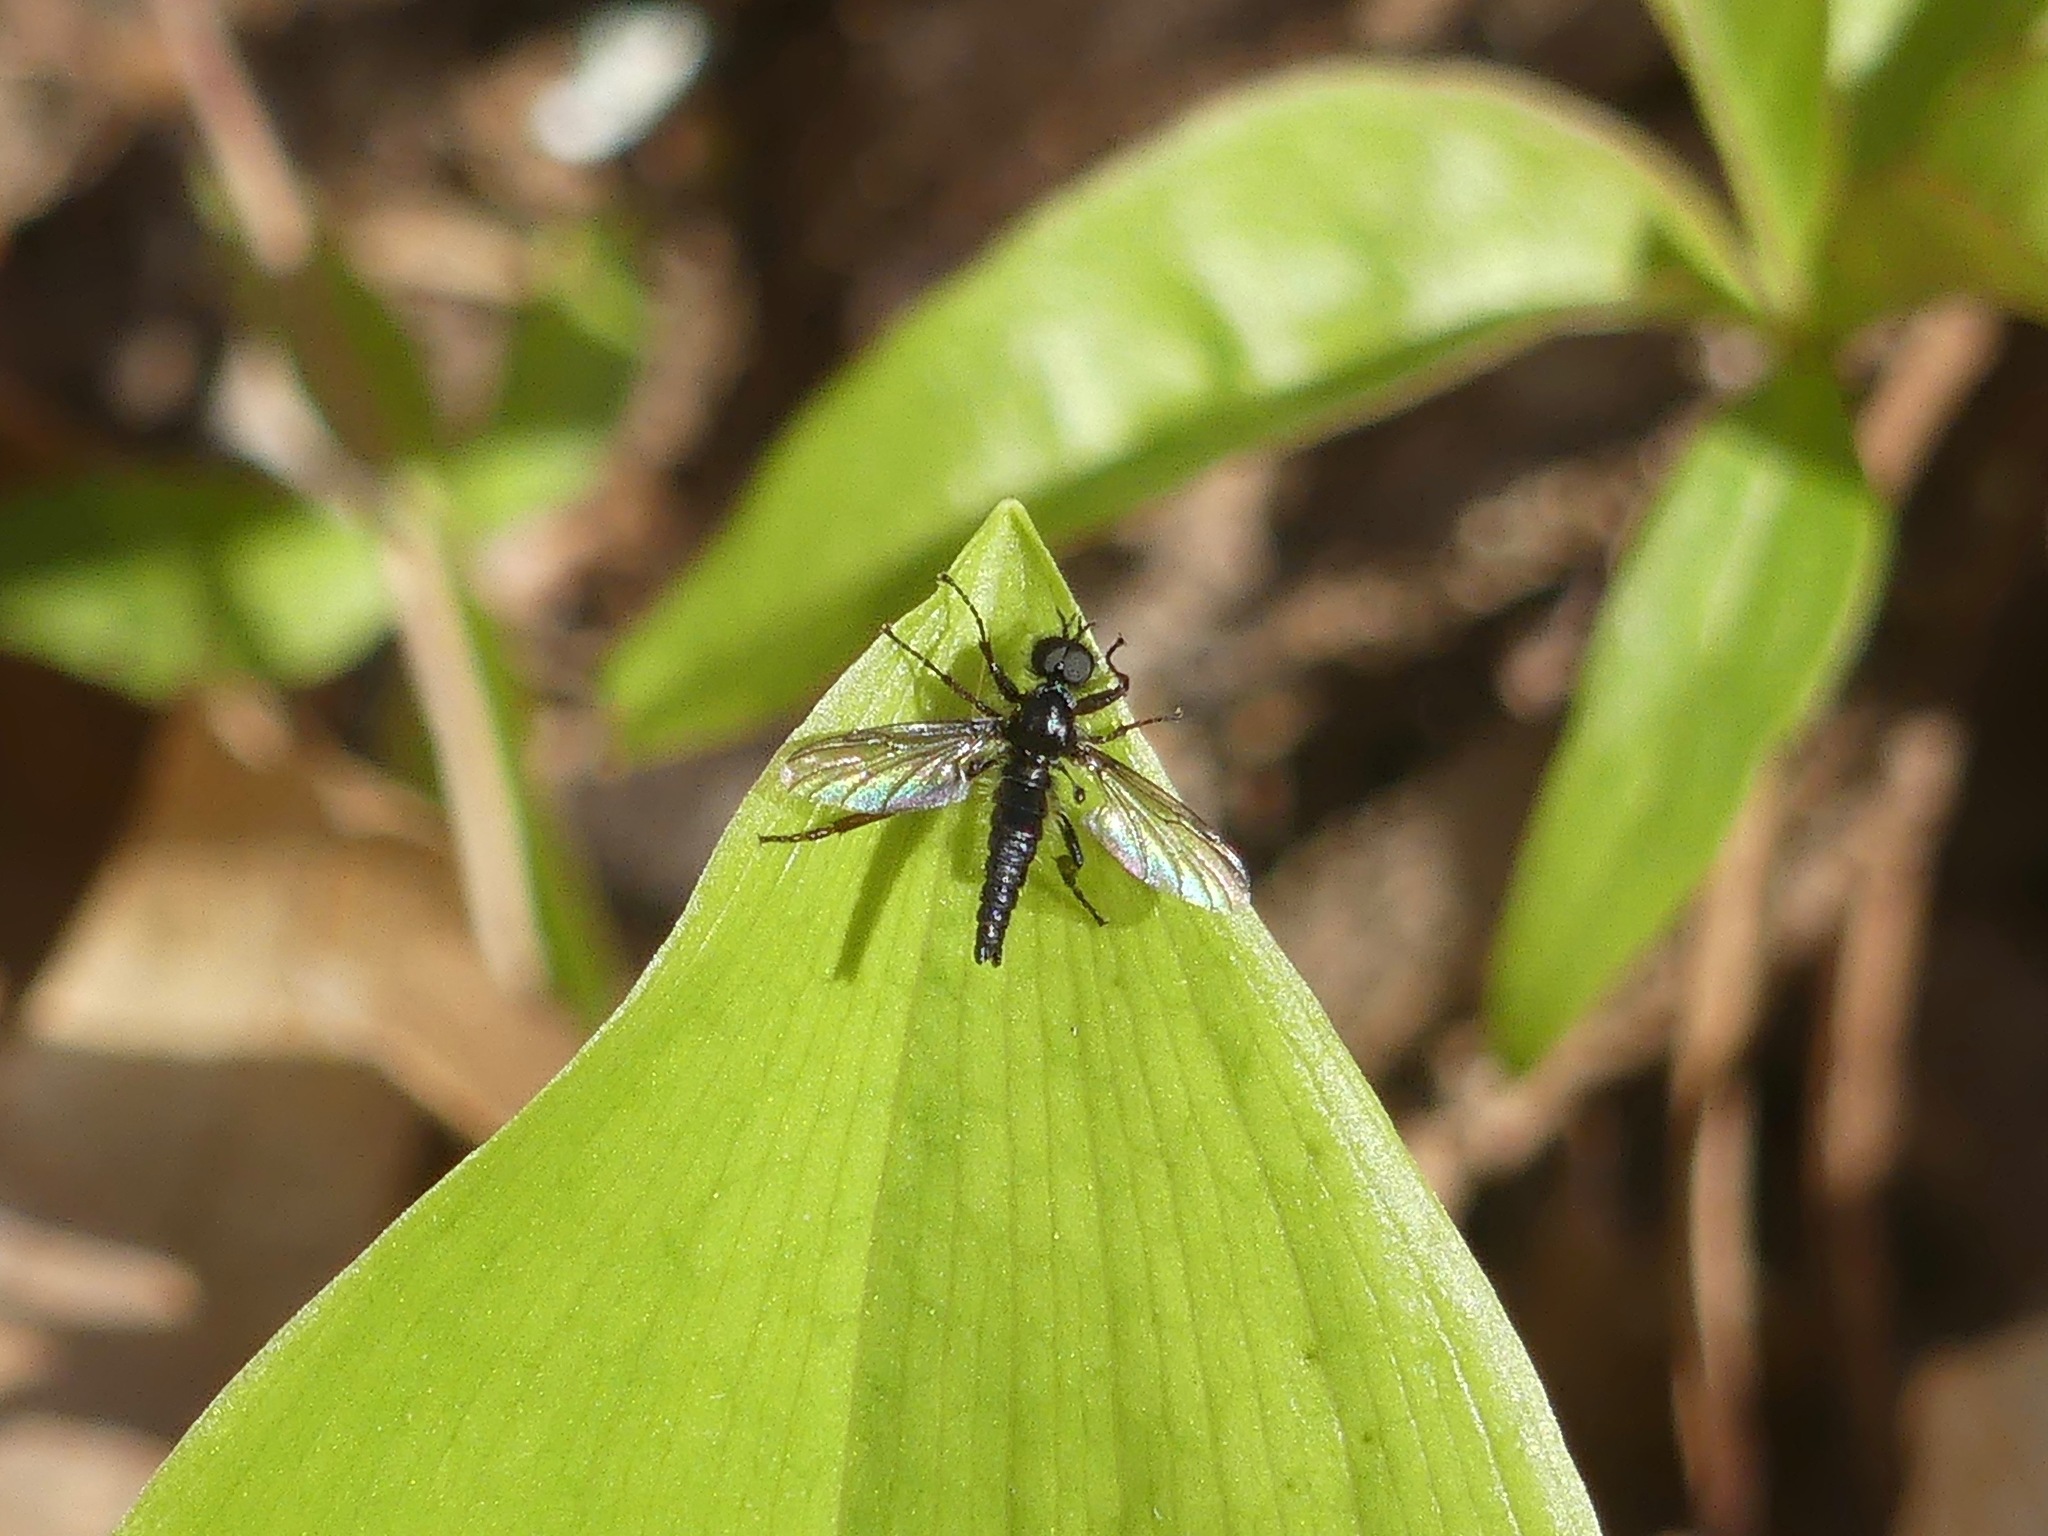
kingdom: Animalia
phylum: Arthropoda
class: Insecta
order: Diptera
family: Bibionidae
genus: Bibio
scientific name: Bibio lanigerus
